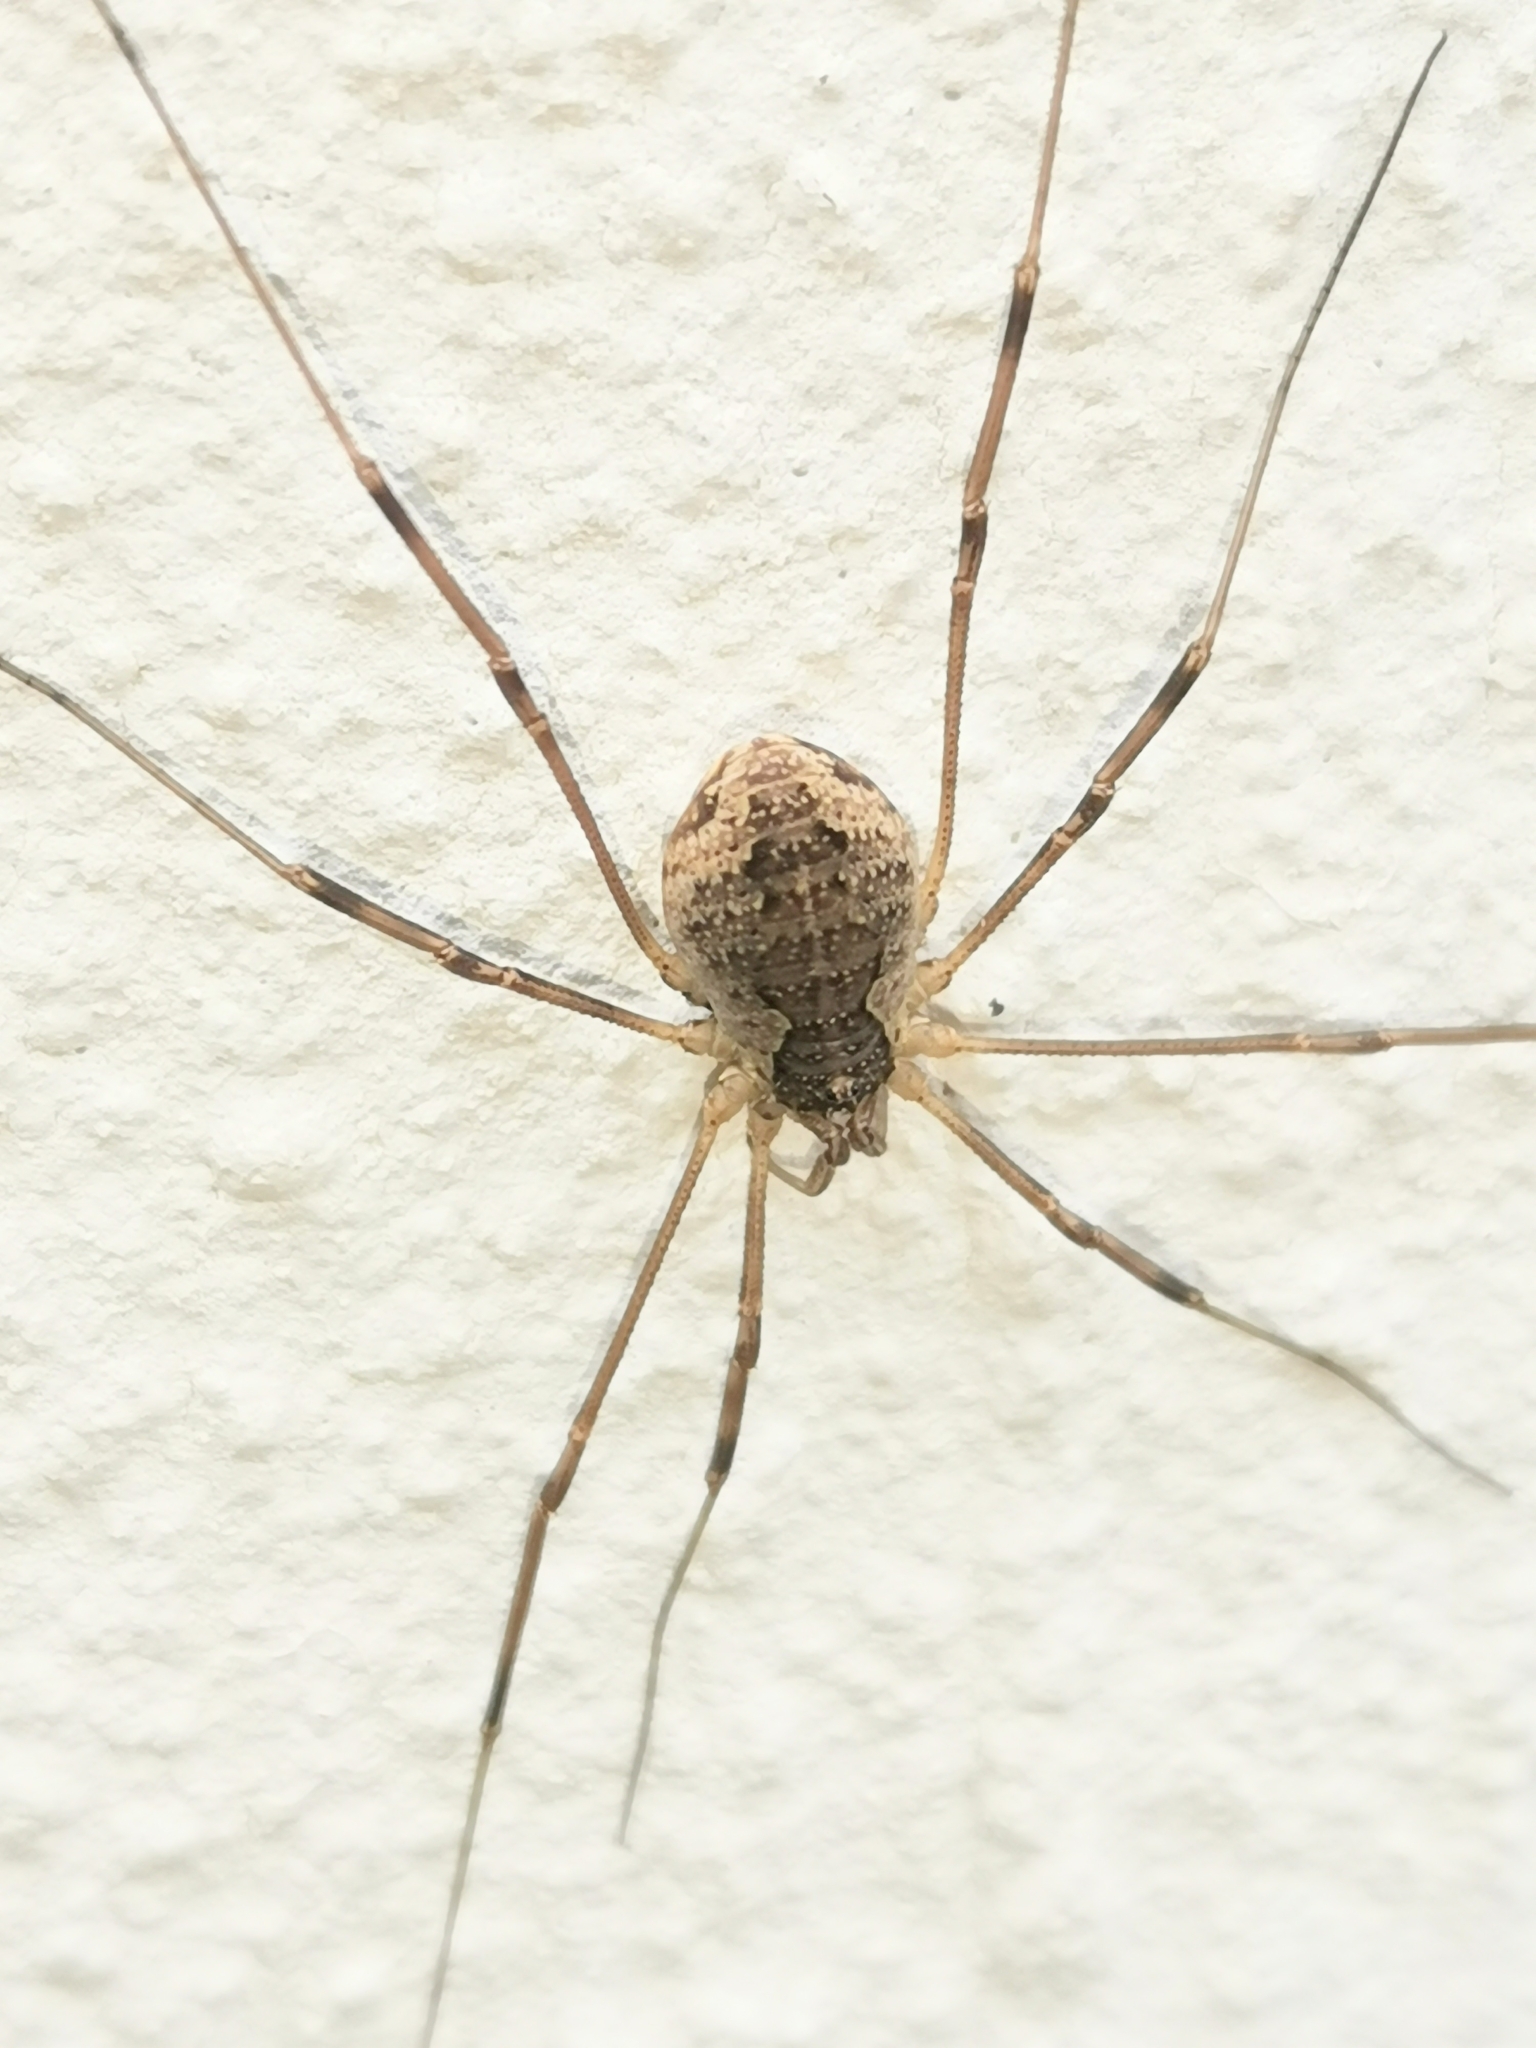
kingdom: Animalia
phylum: Arthropoda
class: Arachnida
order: Opiliones
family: Phalangiidae
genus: Mitopus
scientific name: Mitopus morio
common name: Saddleback harvestman
